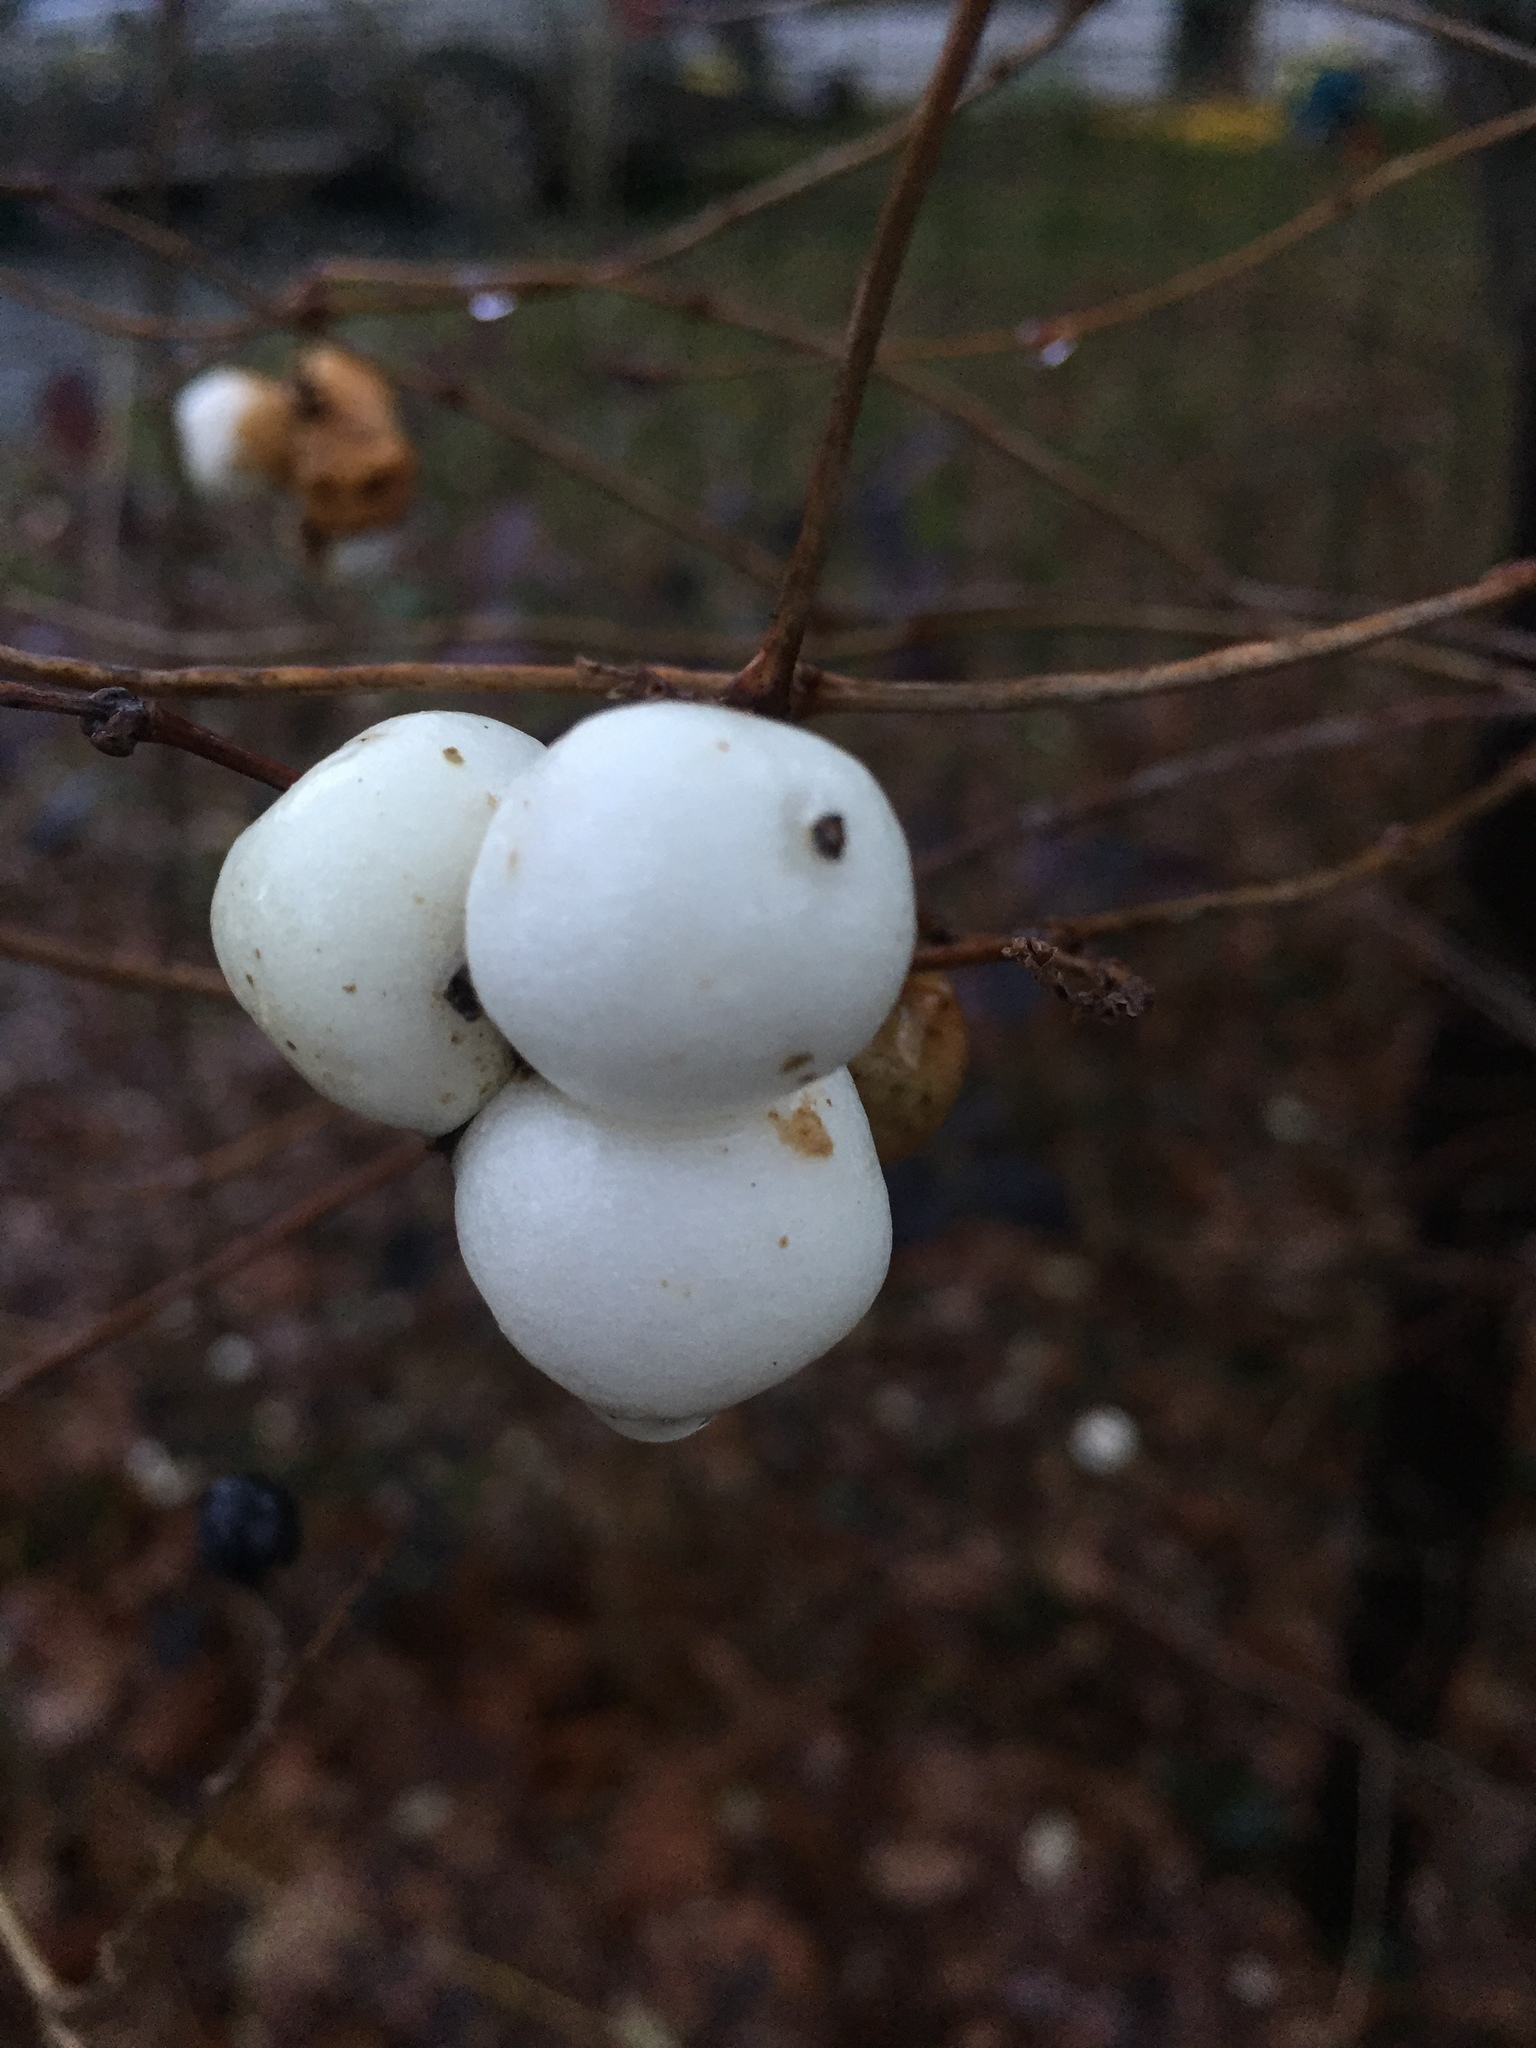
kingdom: Plantae
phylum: Tracheophyta
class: Magnoliopsida
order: Dipsacales
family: Caprifoliaceae
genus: Symphoricarpos
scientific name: Symphoricarpos albus
